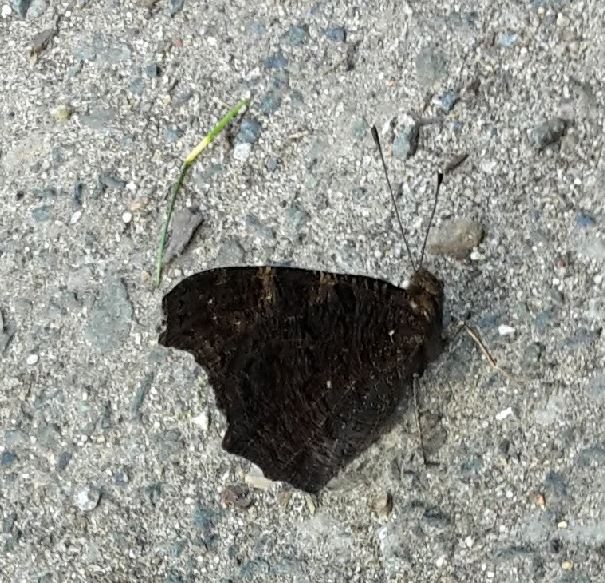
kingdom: Animalia
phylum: Arthropoda
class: Insecta
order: Lepidoptera
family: Nymphalidae
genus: Aglais
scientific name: Aglais io
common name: Peacock
